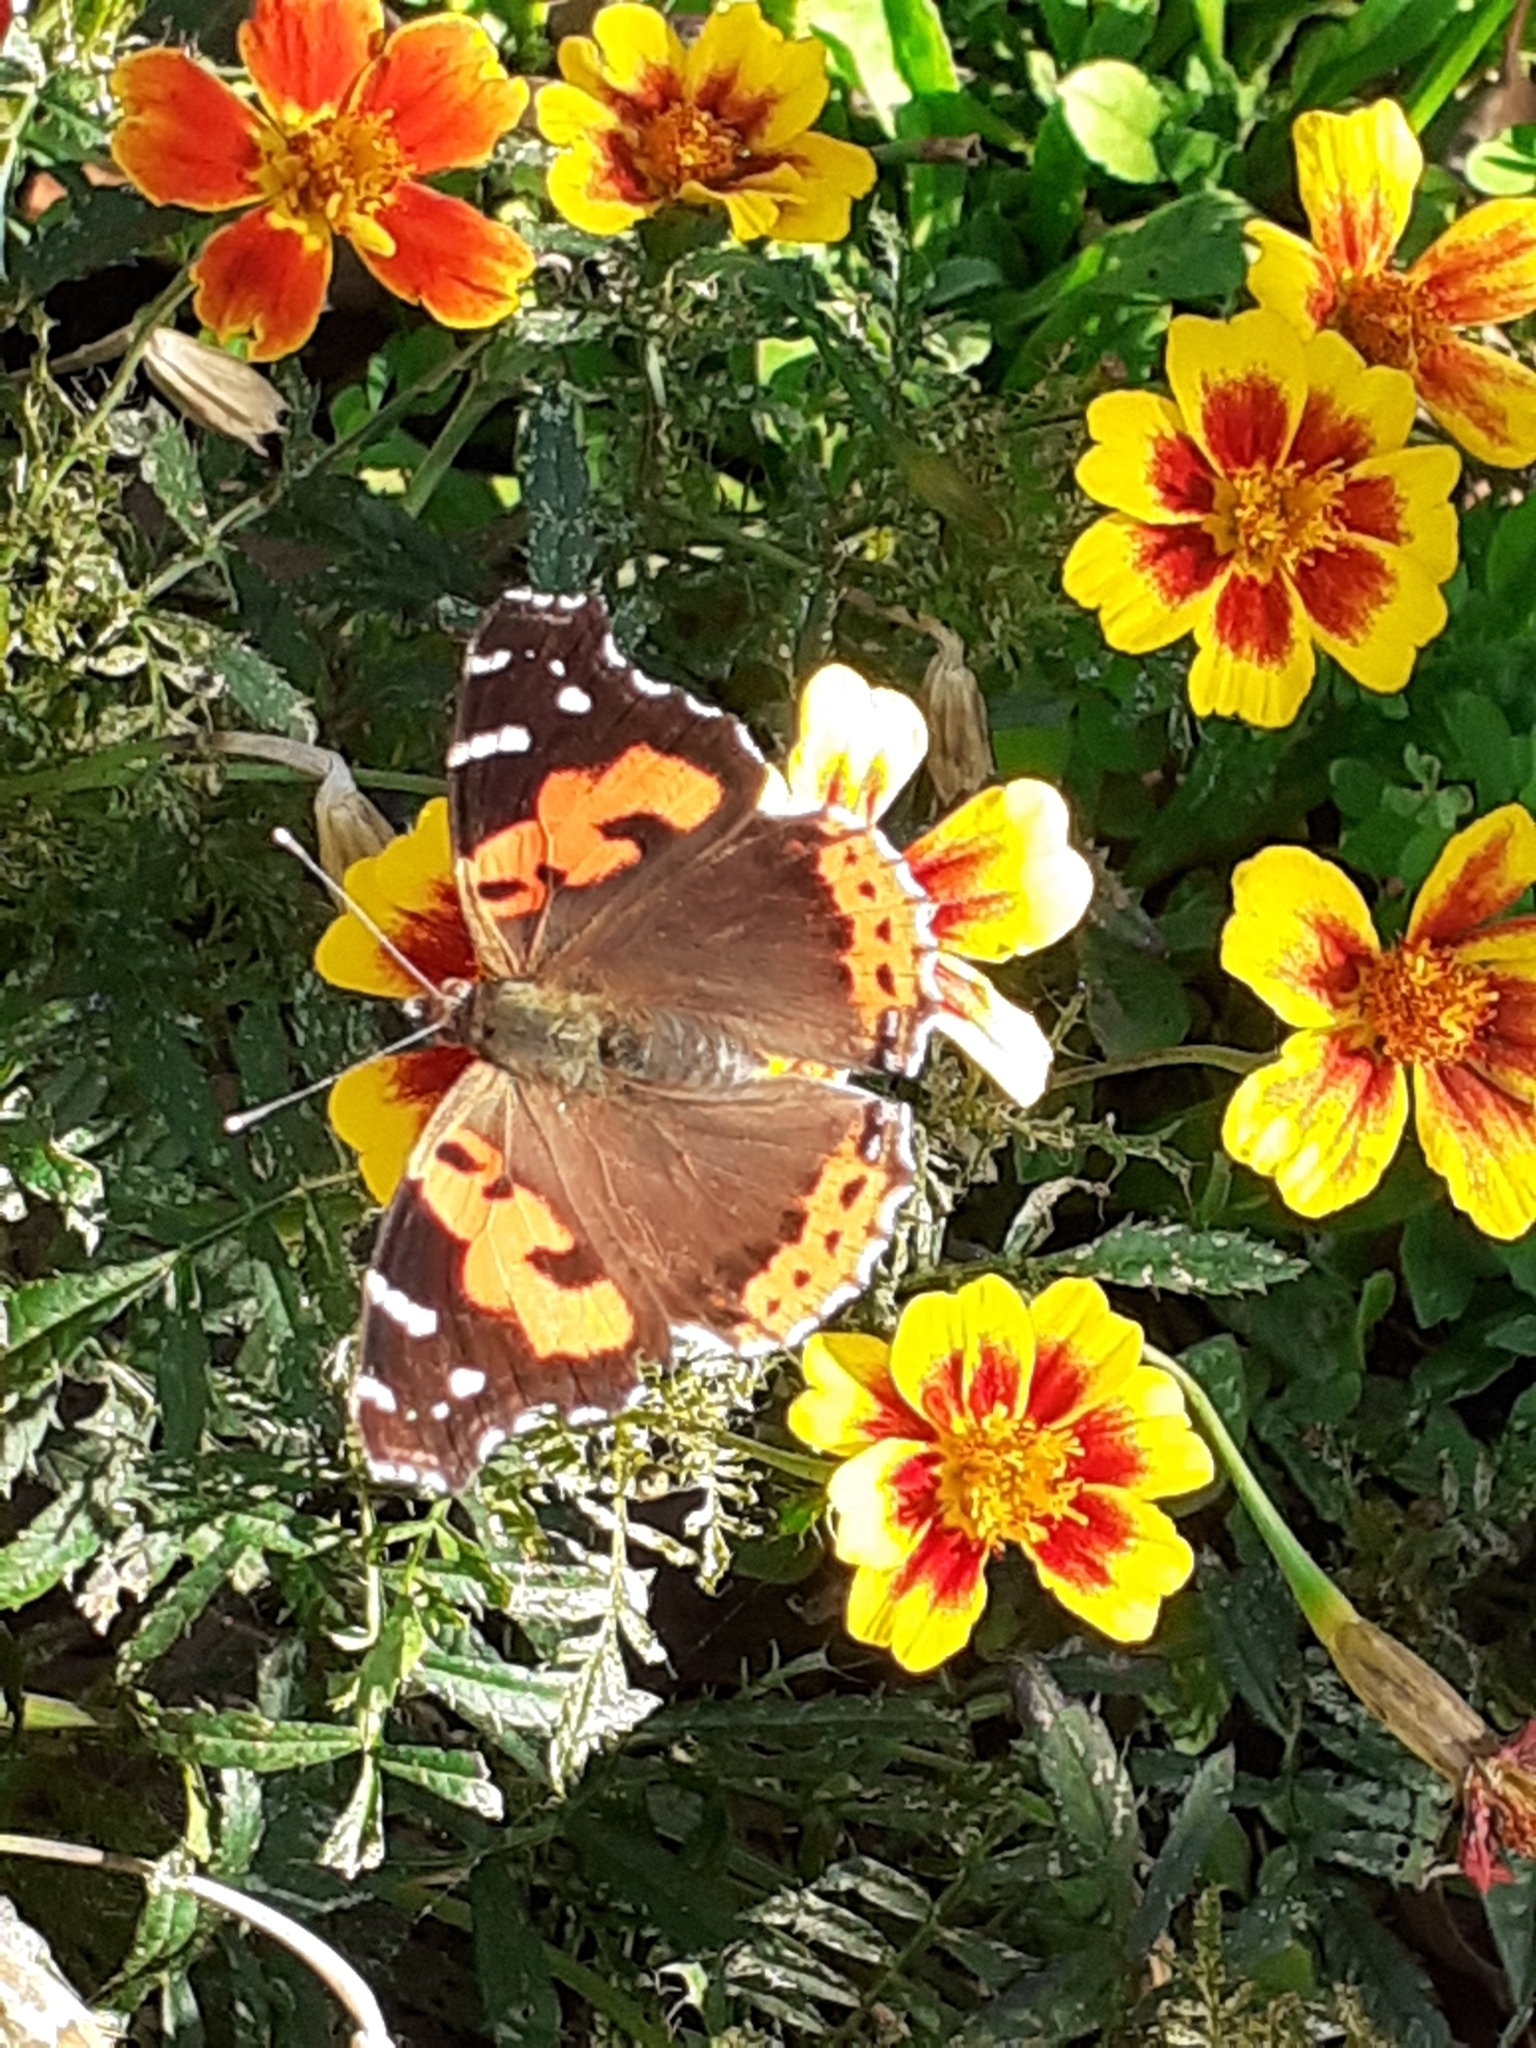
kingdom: Animalia
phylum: Arthropoda
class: Insecta
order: Lepidoptera
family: Nymphalidae
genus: Vanessa
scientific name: Vanessa vulcania
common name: Canary red admiral
